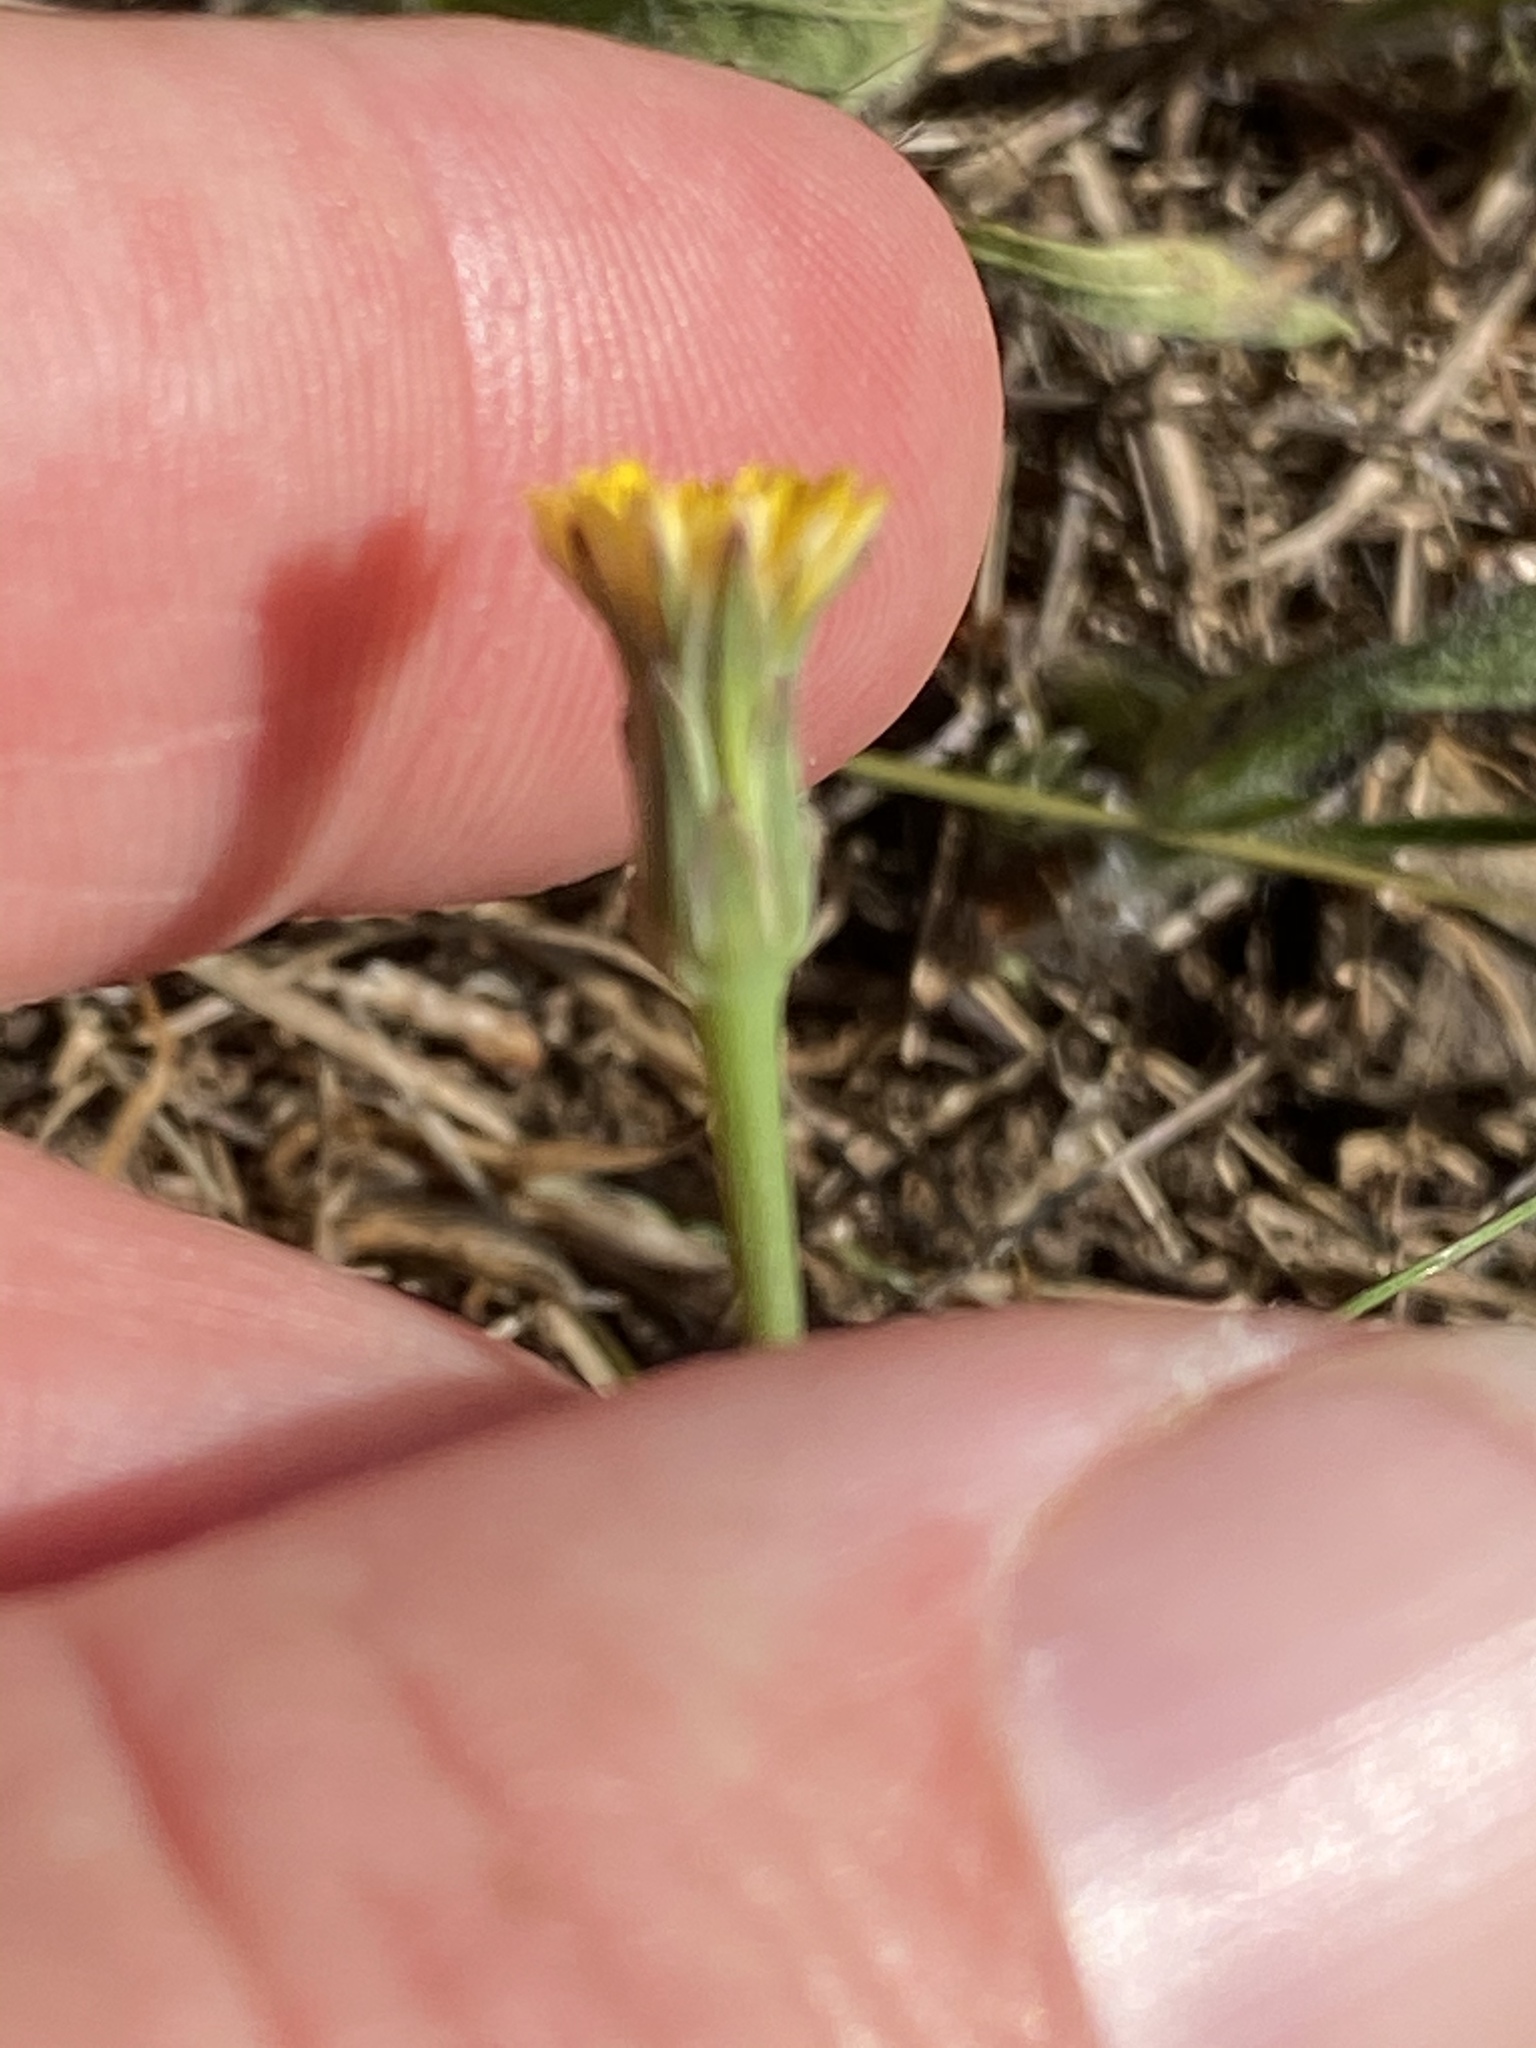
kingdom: Plantae
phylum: Tracheophyta
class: Magnoliopsida
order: Asterales
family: Asteraceae
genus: Hypochaeris
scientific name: Hypochaeris glabra
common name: Smooth catsear
